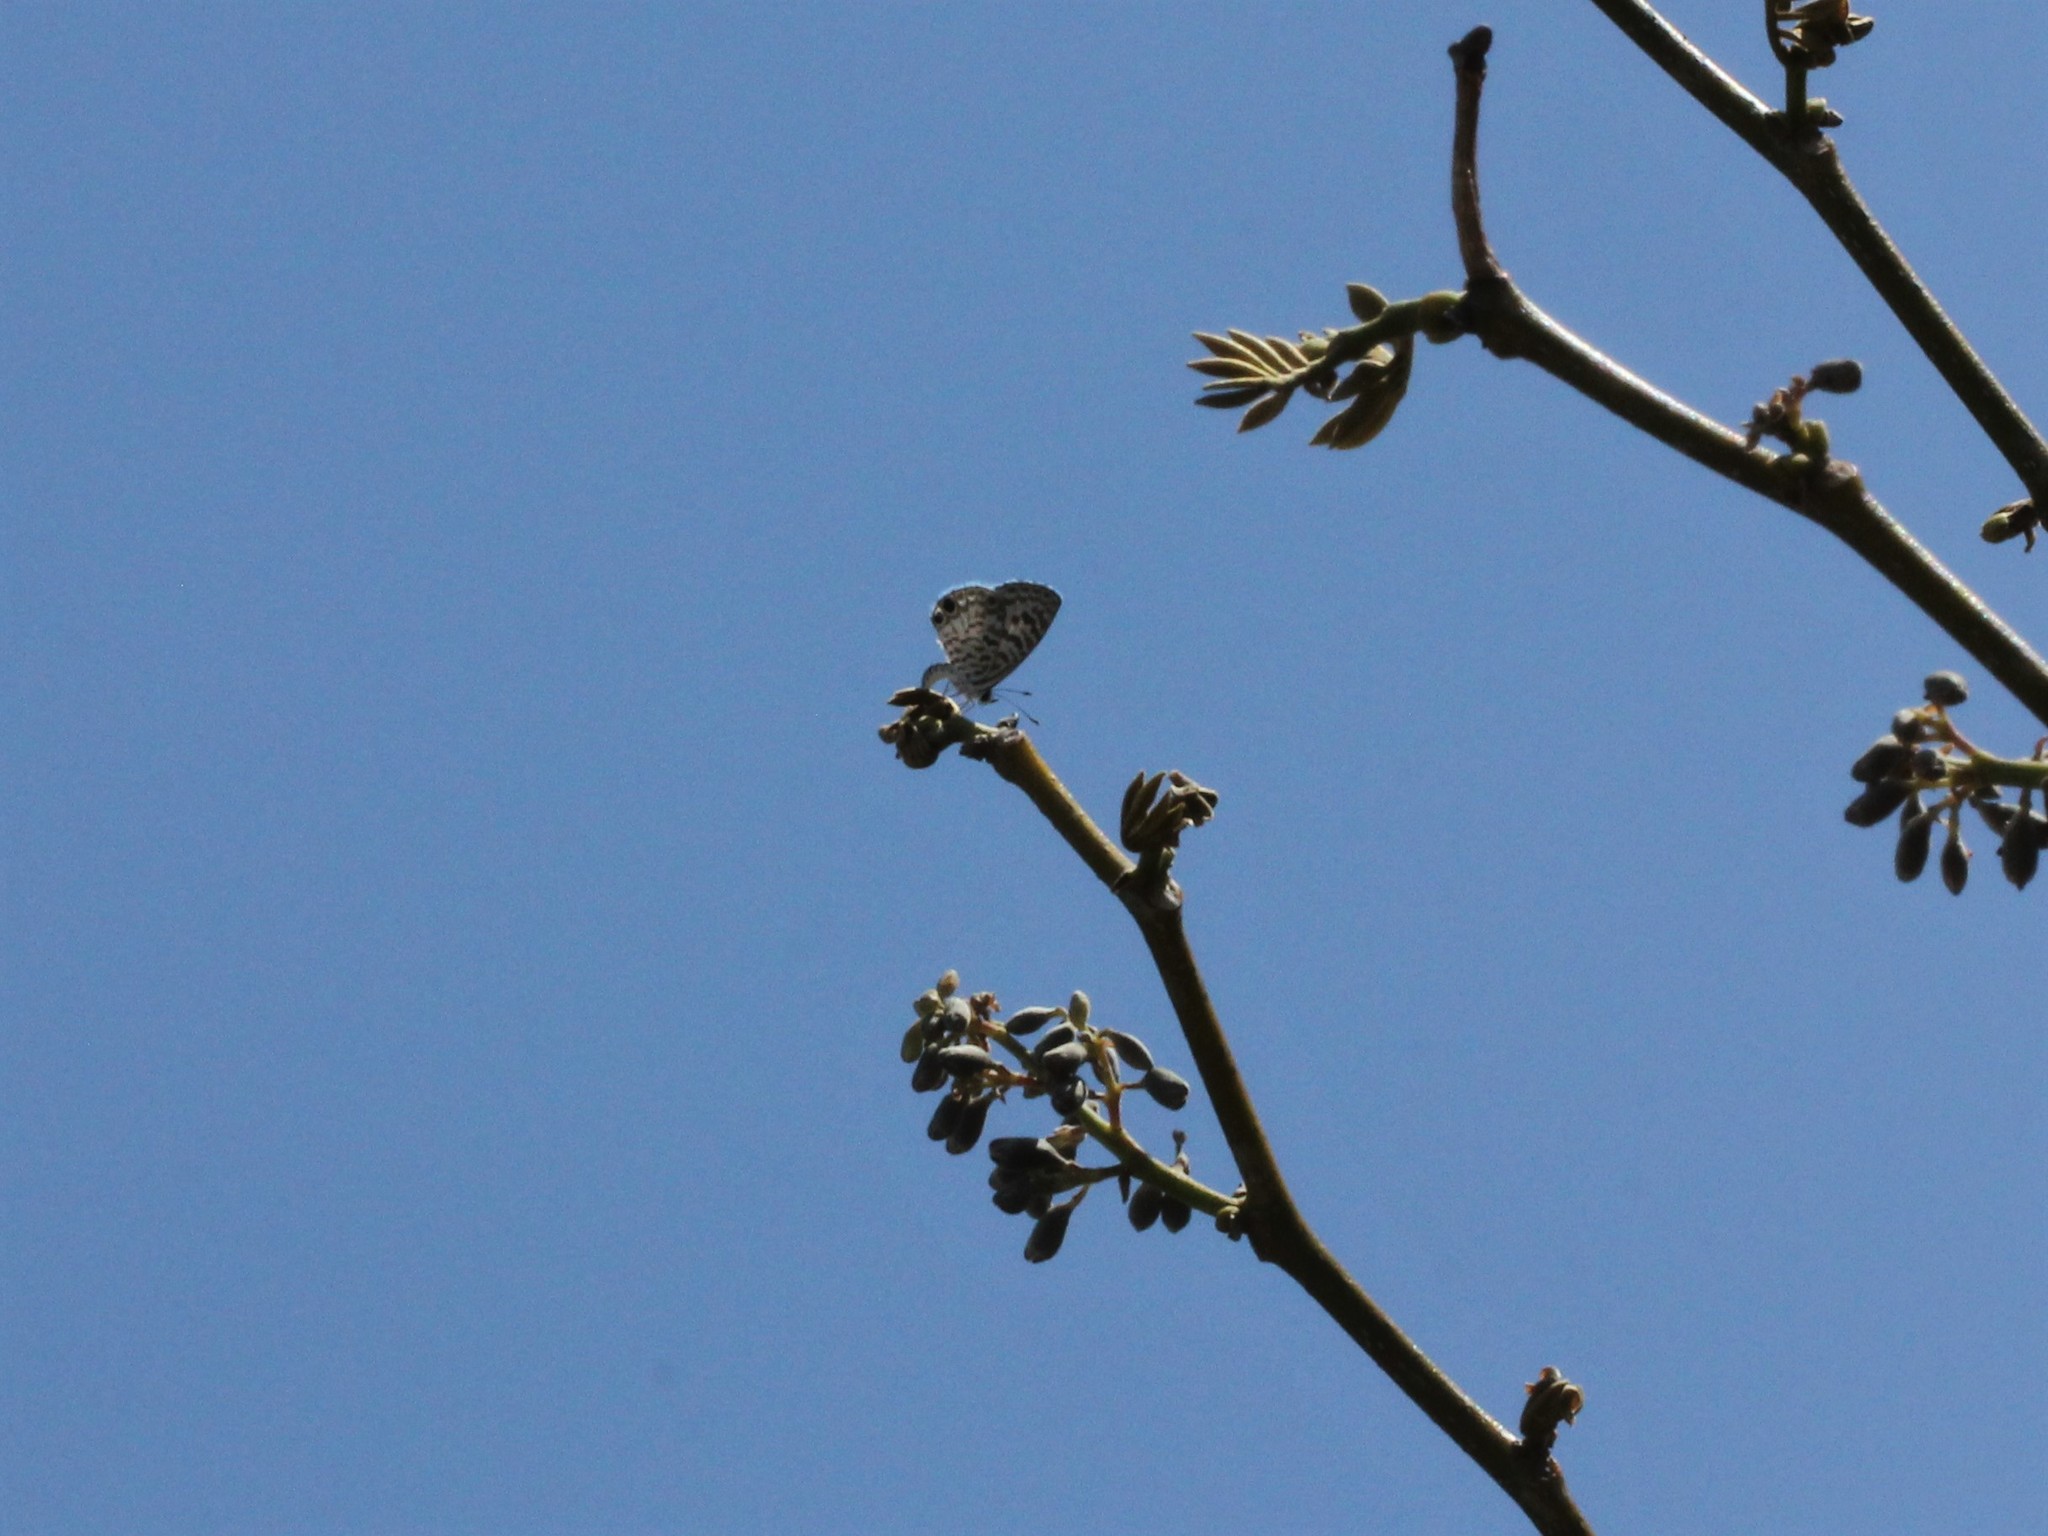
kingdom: Animalia
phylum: Arthropoda
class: Insecta
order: Lepidoptera
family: Lycaenidae
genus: Leptotes
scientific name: Leptotes cassius
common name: Cassius blue
